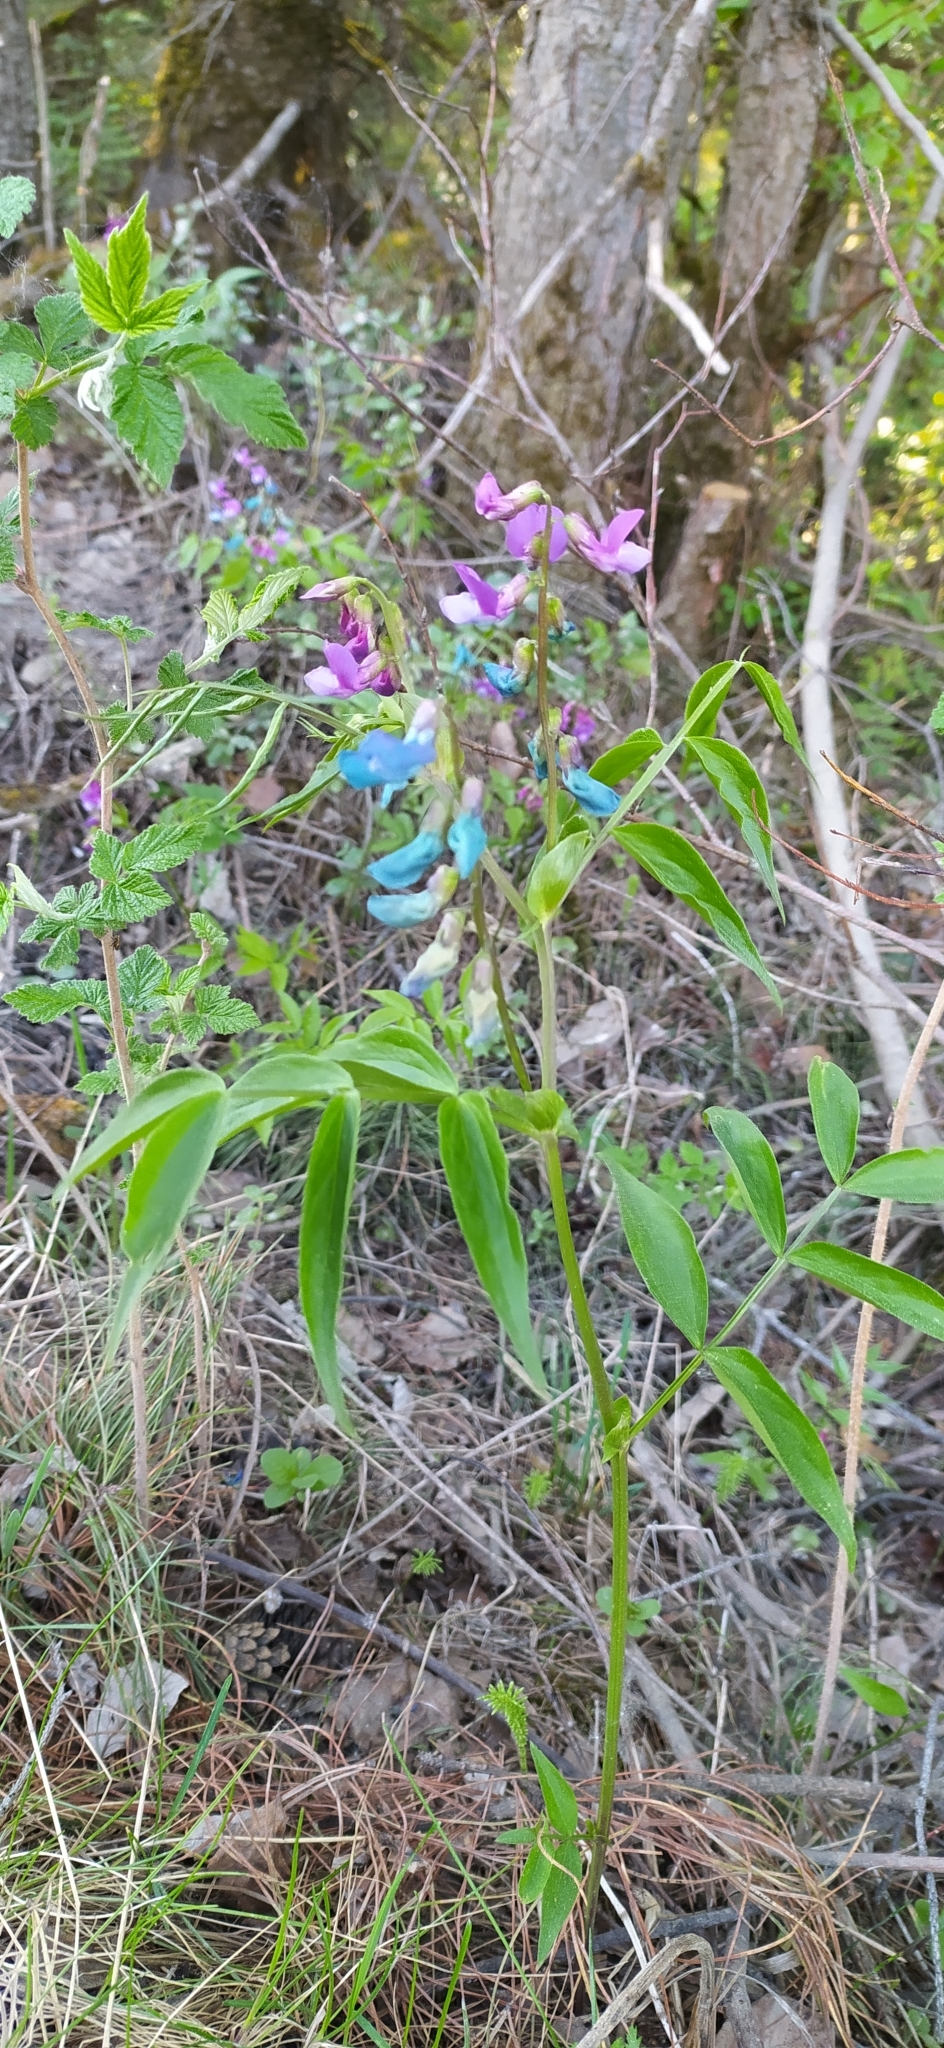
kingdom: Plantae
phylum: Tracheophyta
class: Magnoliopsida
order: Fabales
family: Fabaceae
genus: Lathyrus
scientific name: Lathyrus vernus
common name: Spring pea
